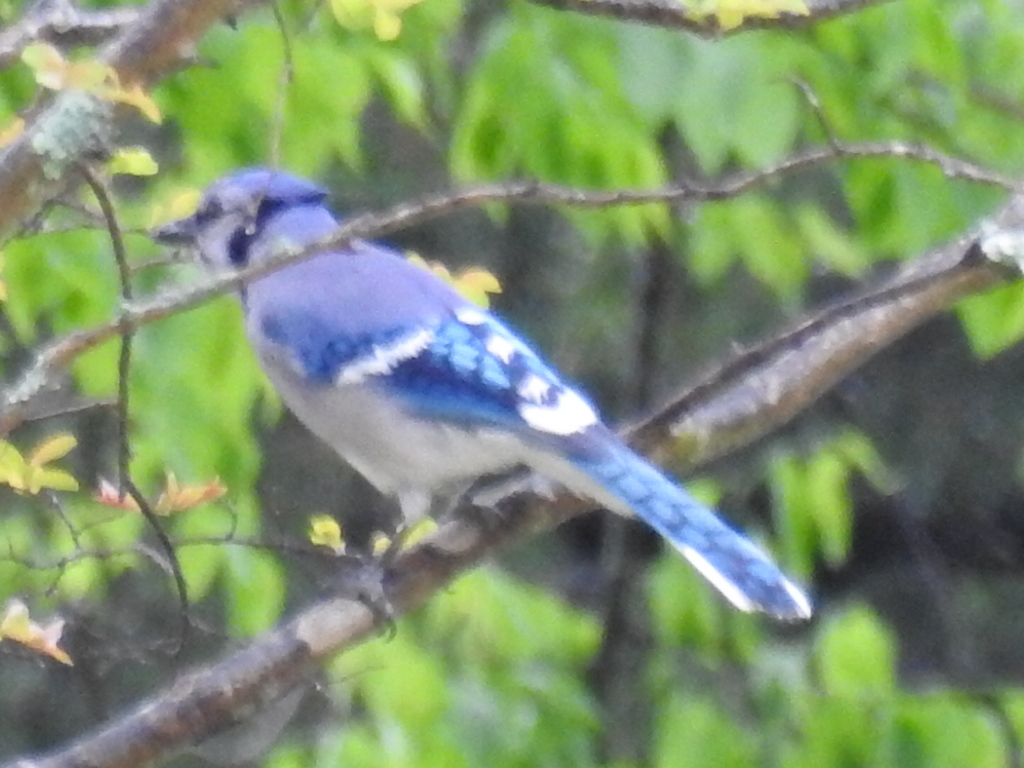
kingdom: Animalia
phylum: Chordata
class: Aves
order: Passeriformes
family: Corvidae
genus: Cyanocitta
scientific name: Cyanocitta cristata
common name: Blue jay
